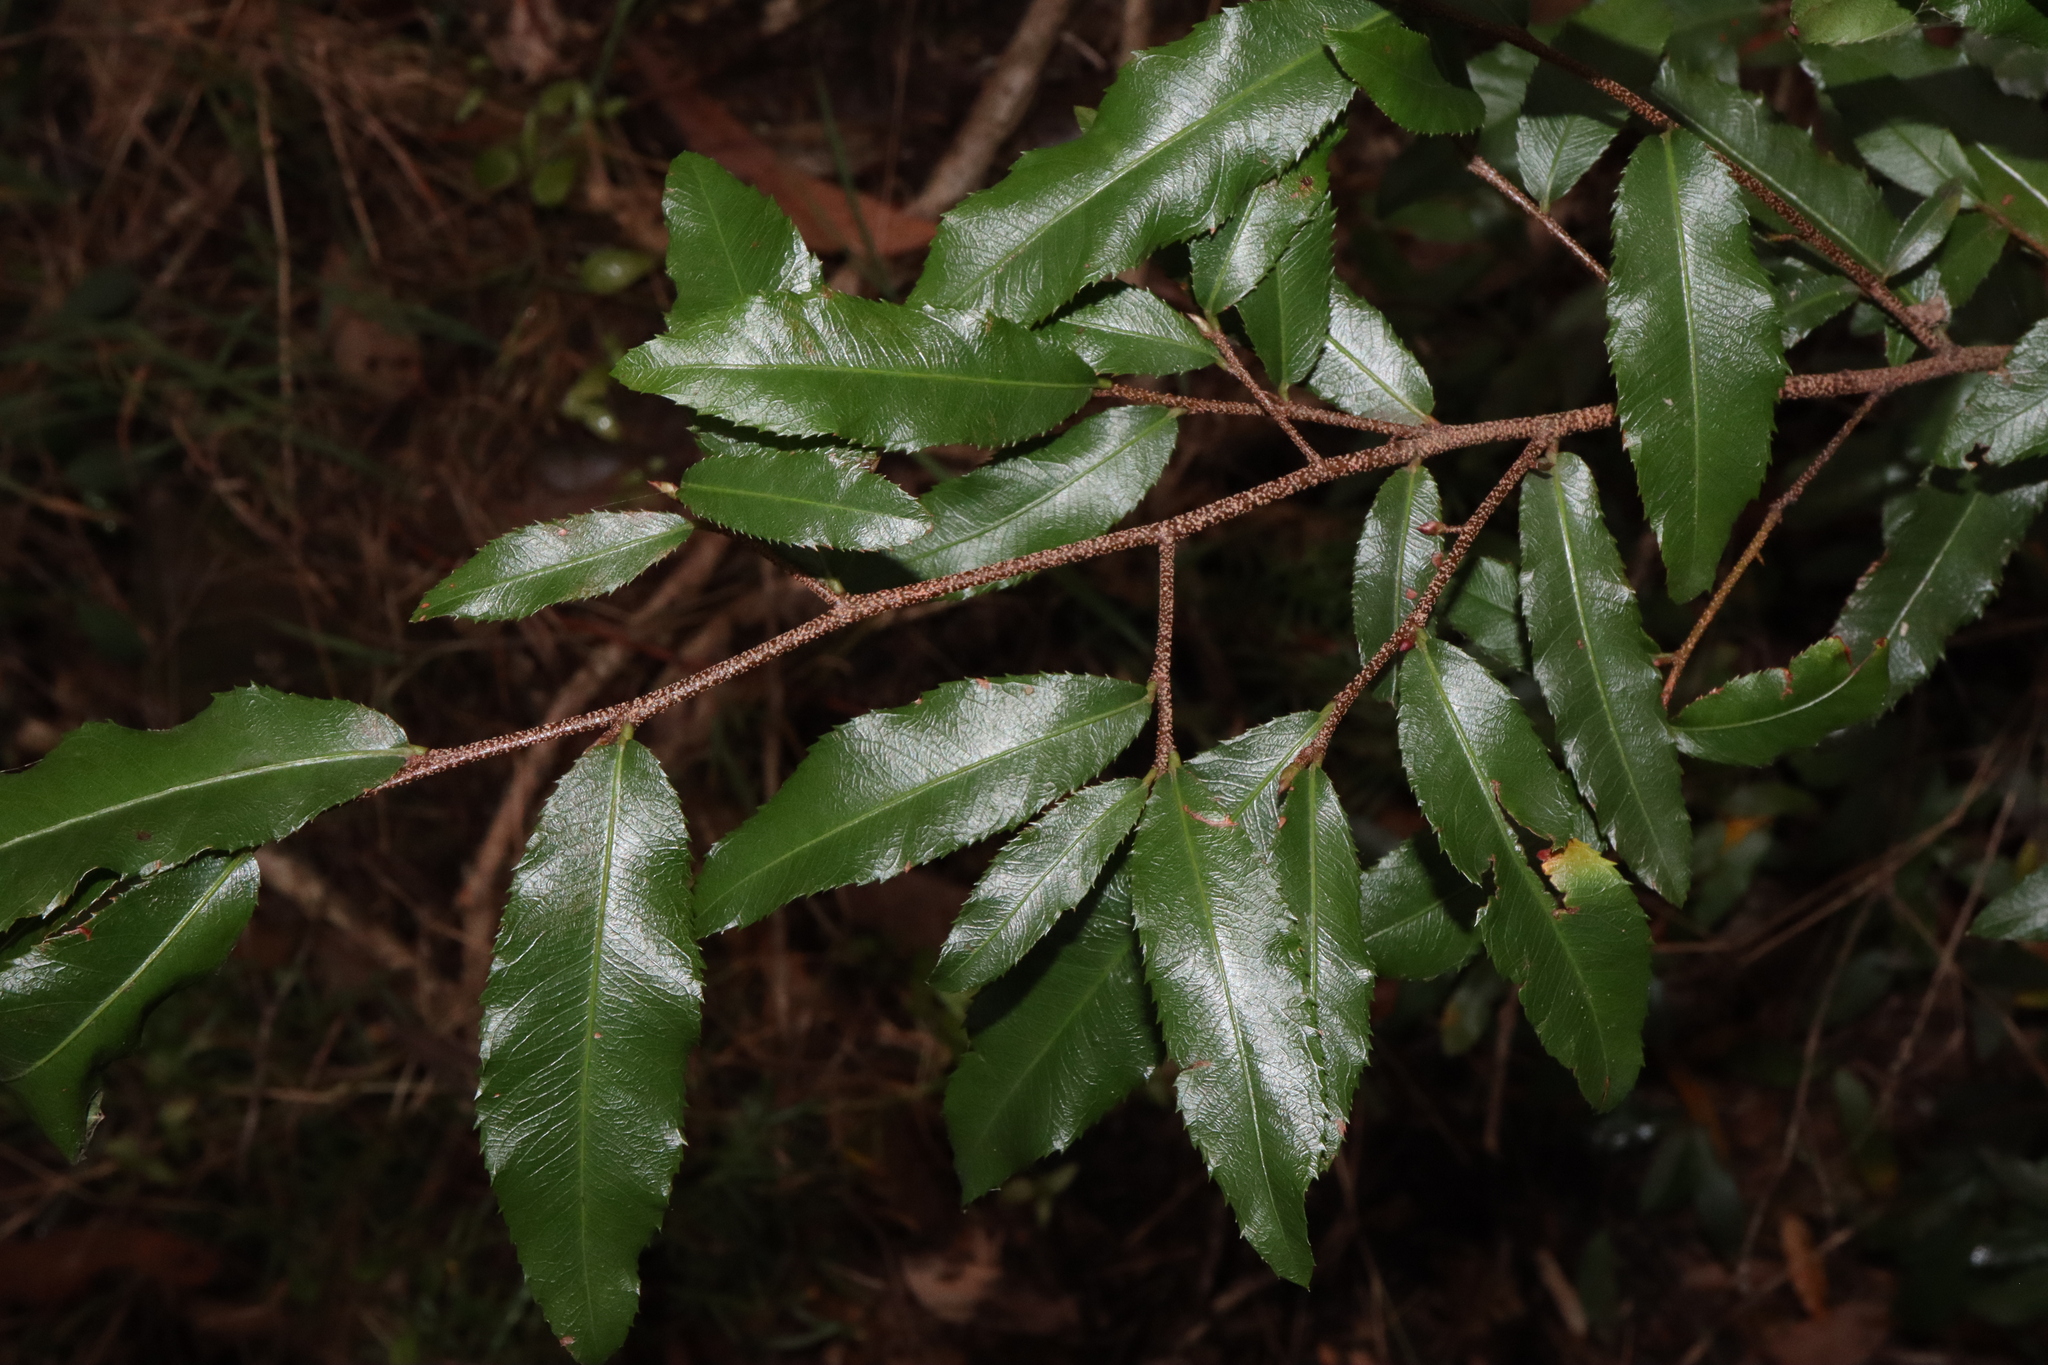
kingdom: Plantae
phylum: Tracheophyta
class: Magnoliopsida
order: Malpighiales
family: Ochnaceae
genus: Ochna
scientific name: Ochna serrulata
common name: Mickey mouse plant
